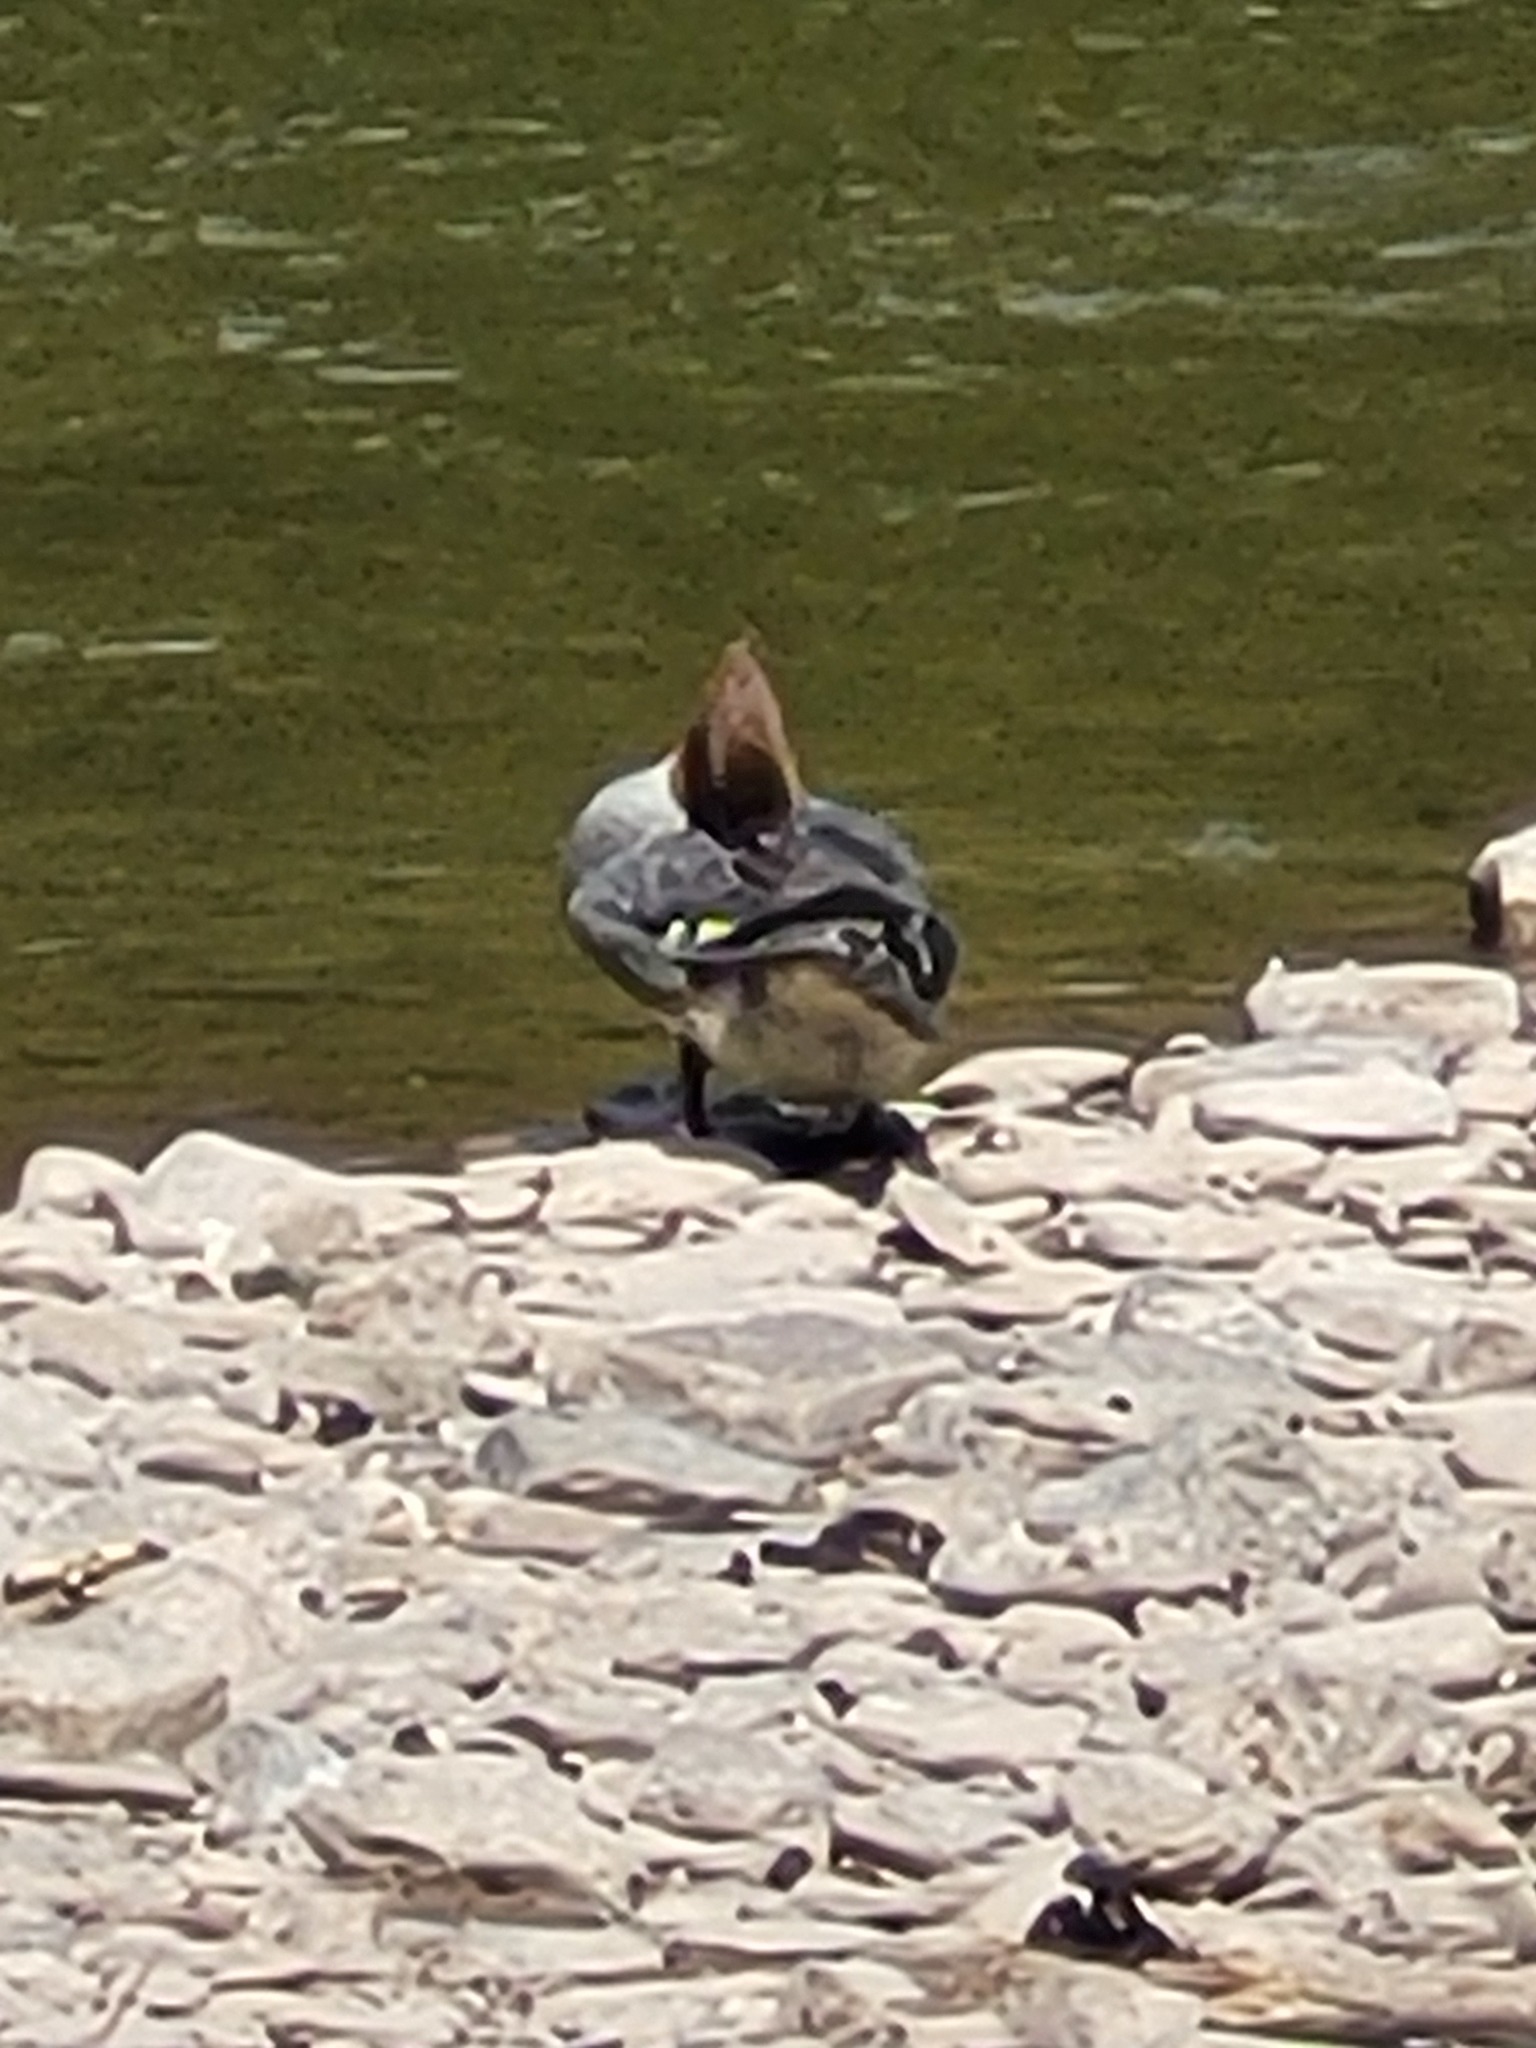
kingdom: Animalia
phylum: Chordata
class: Aves
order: Anseriformes
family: Anatidae
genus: Mergus
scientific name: Mergus merganser
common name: Common merganser
